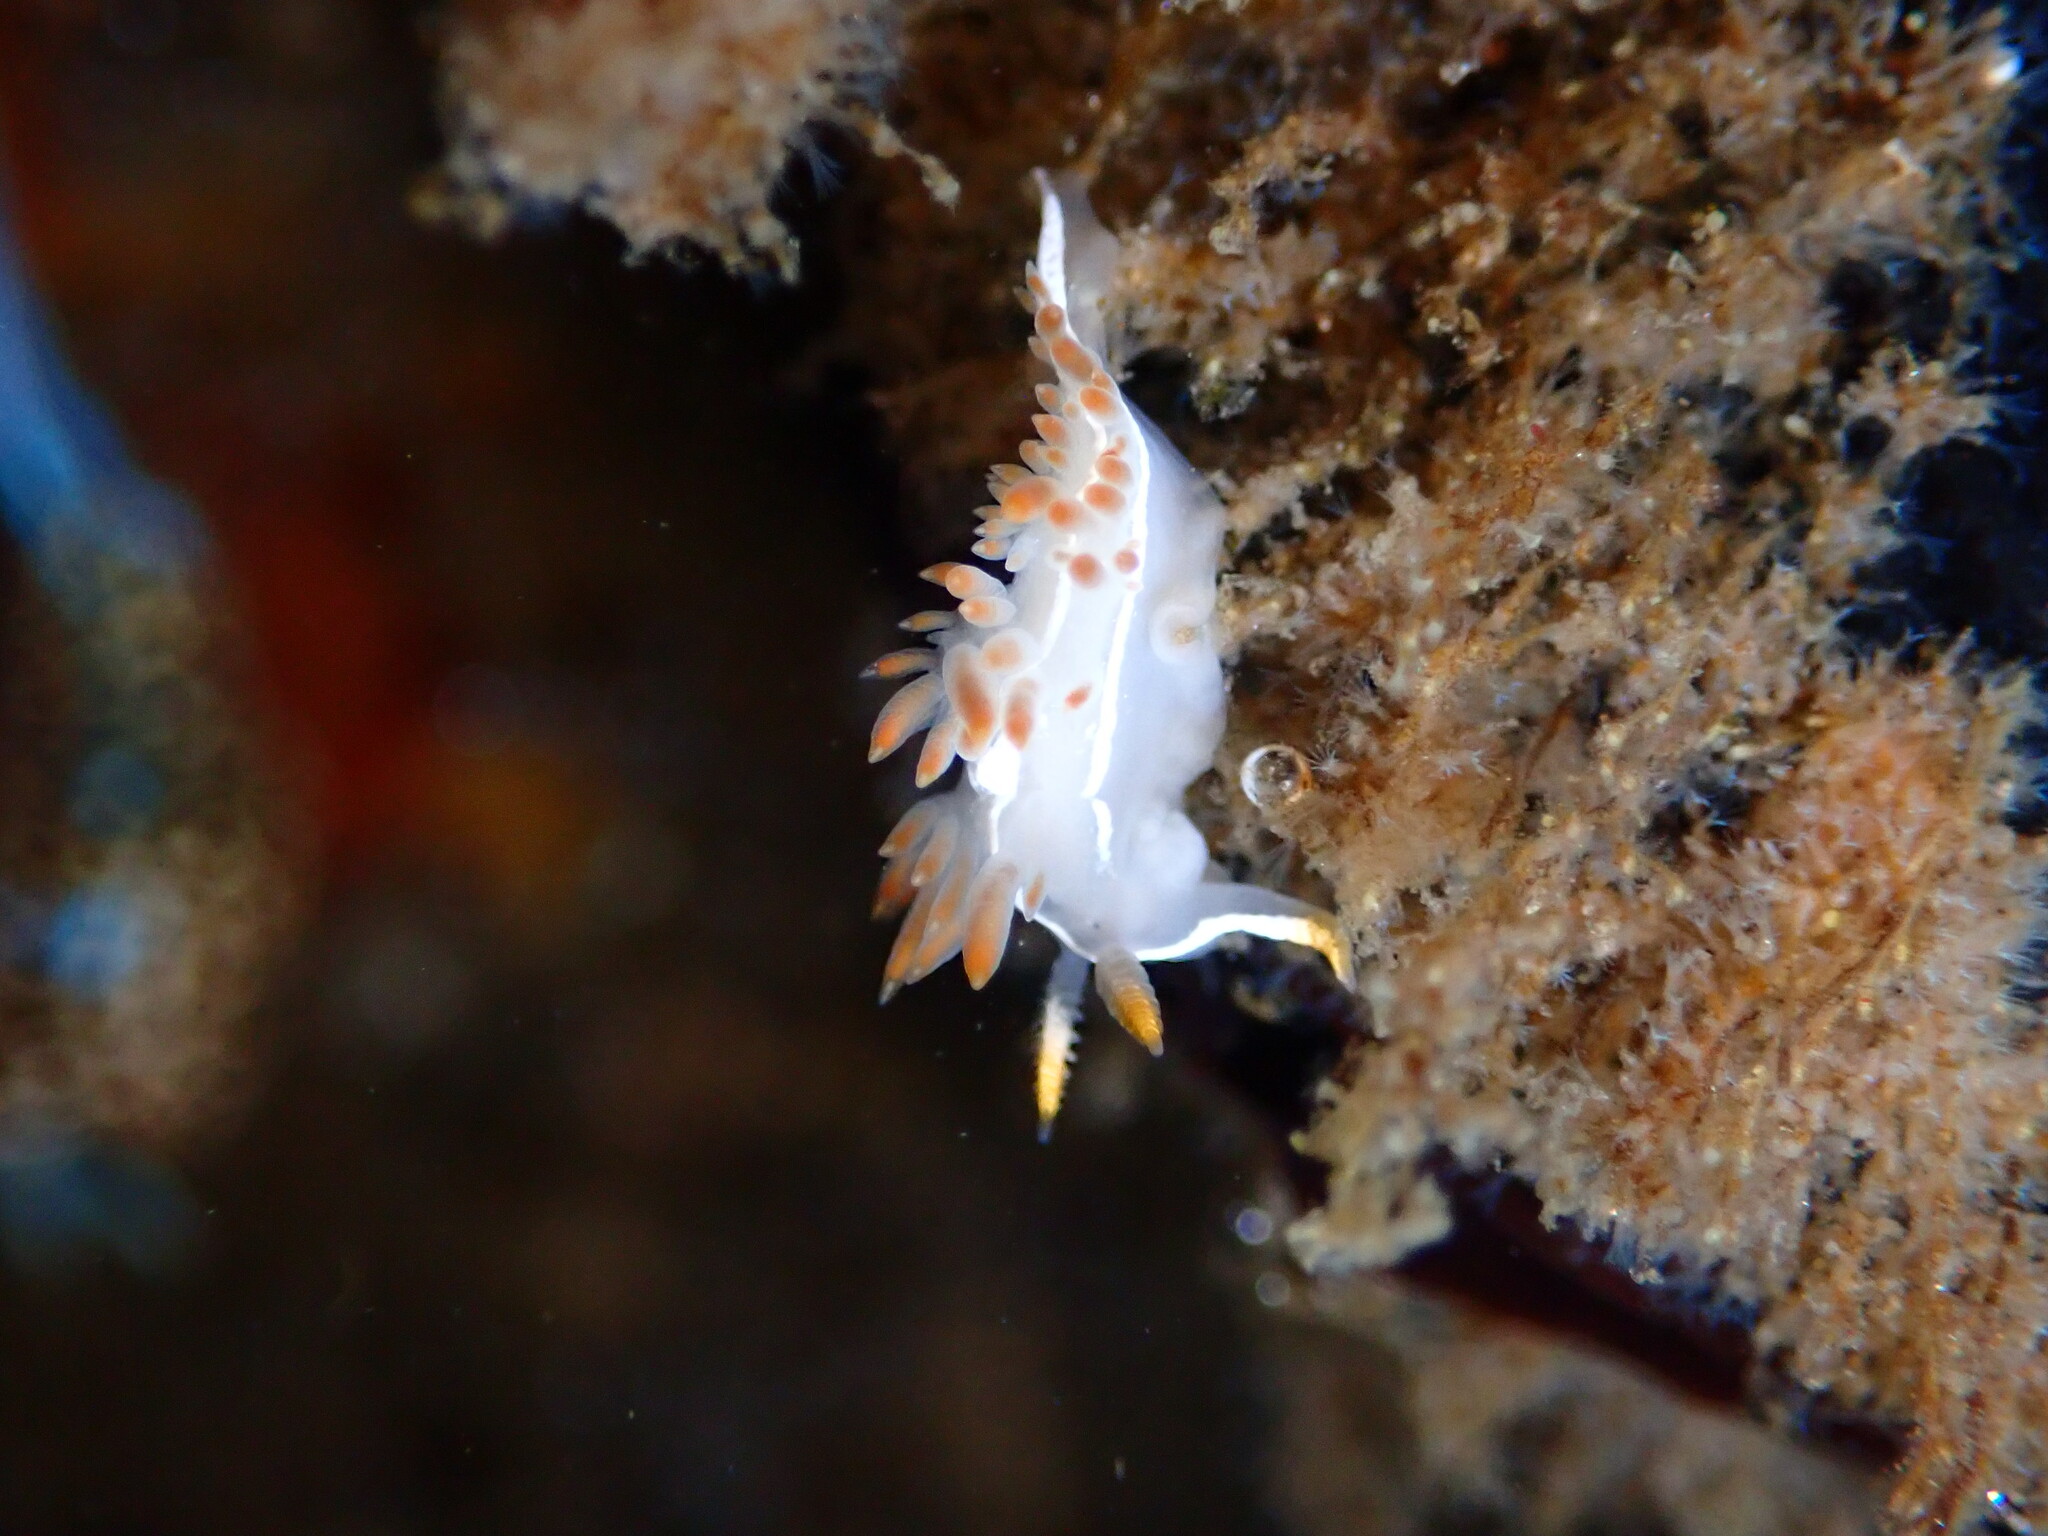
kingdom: Animalia
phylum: Mollusca
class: Gastropoda
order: Nudibranchia
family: Coryphellidae
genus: Coryphella
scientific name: Coryphella trilineata
